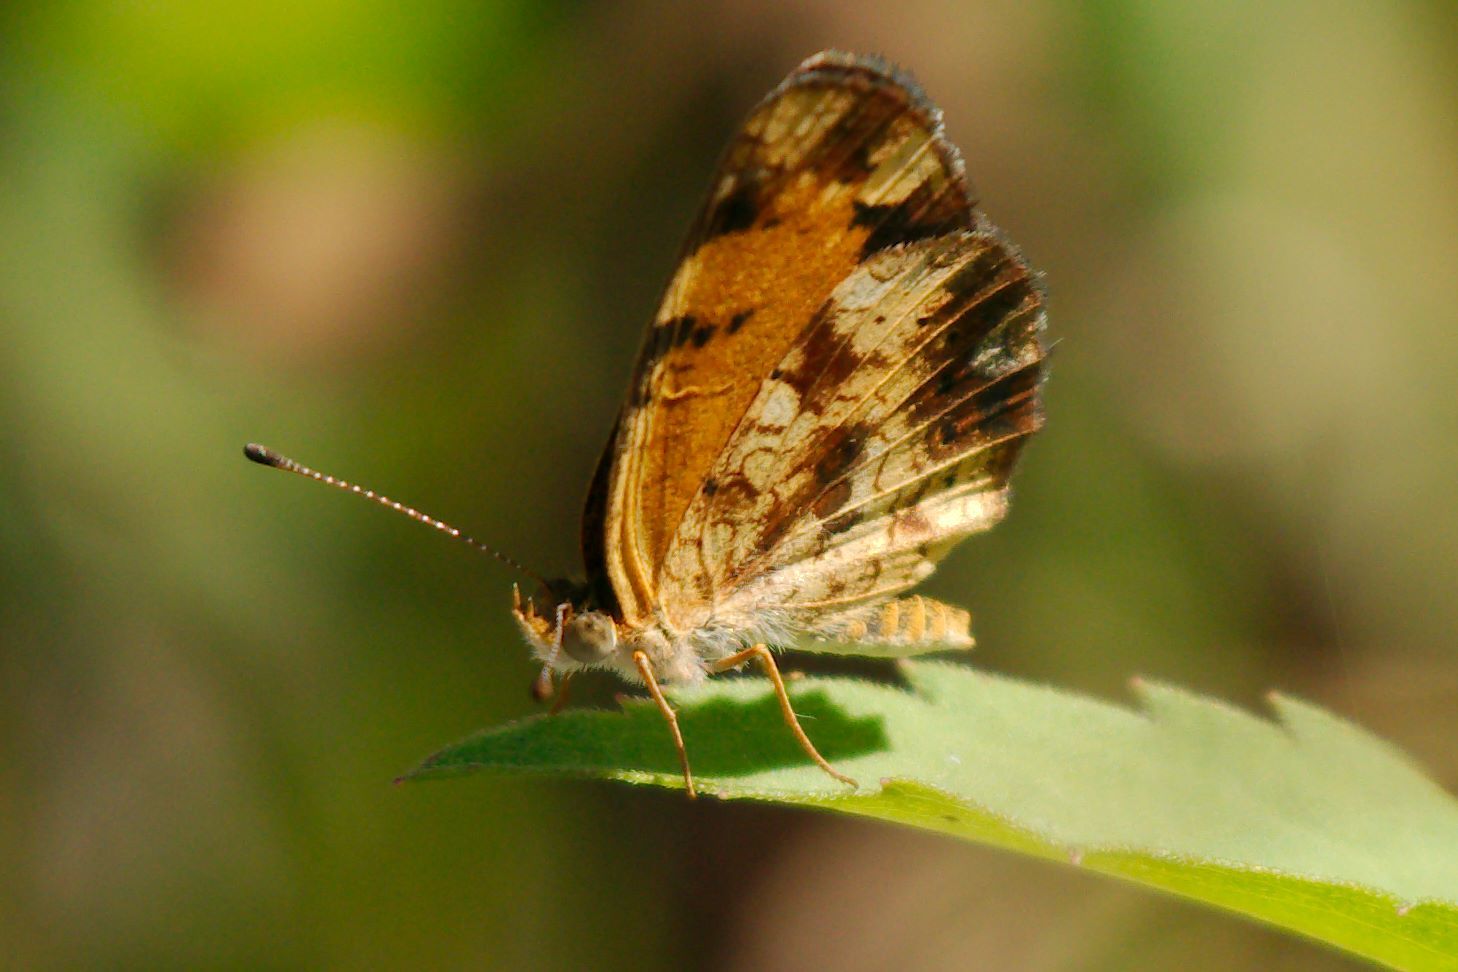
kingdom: Animalia
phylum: Arthropoda
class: Insecta
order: Lepidoptera
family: Nymphalidae
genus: Phyciodes
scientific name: Phyciodes tharos
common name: Pearl crescent
